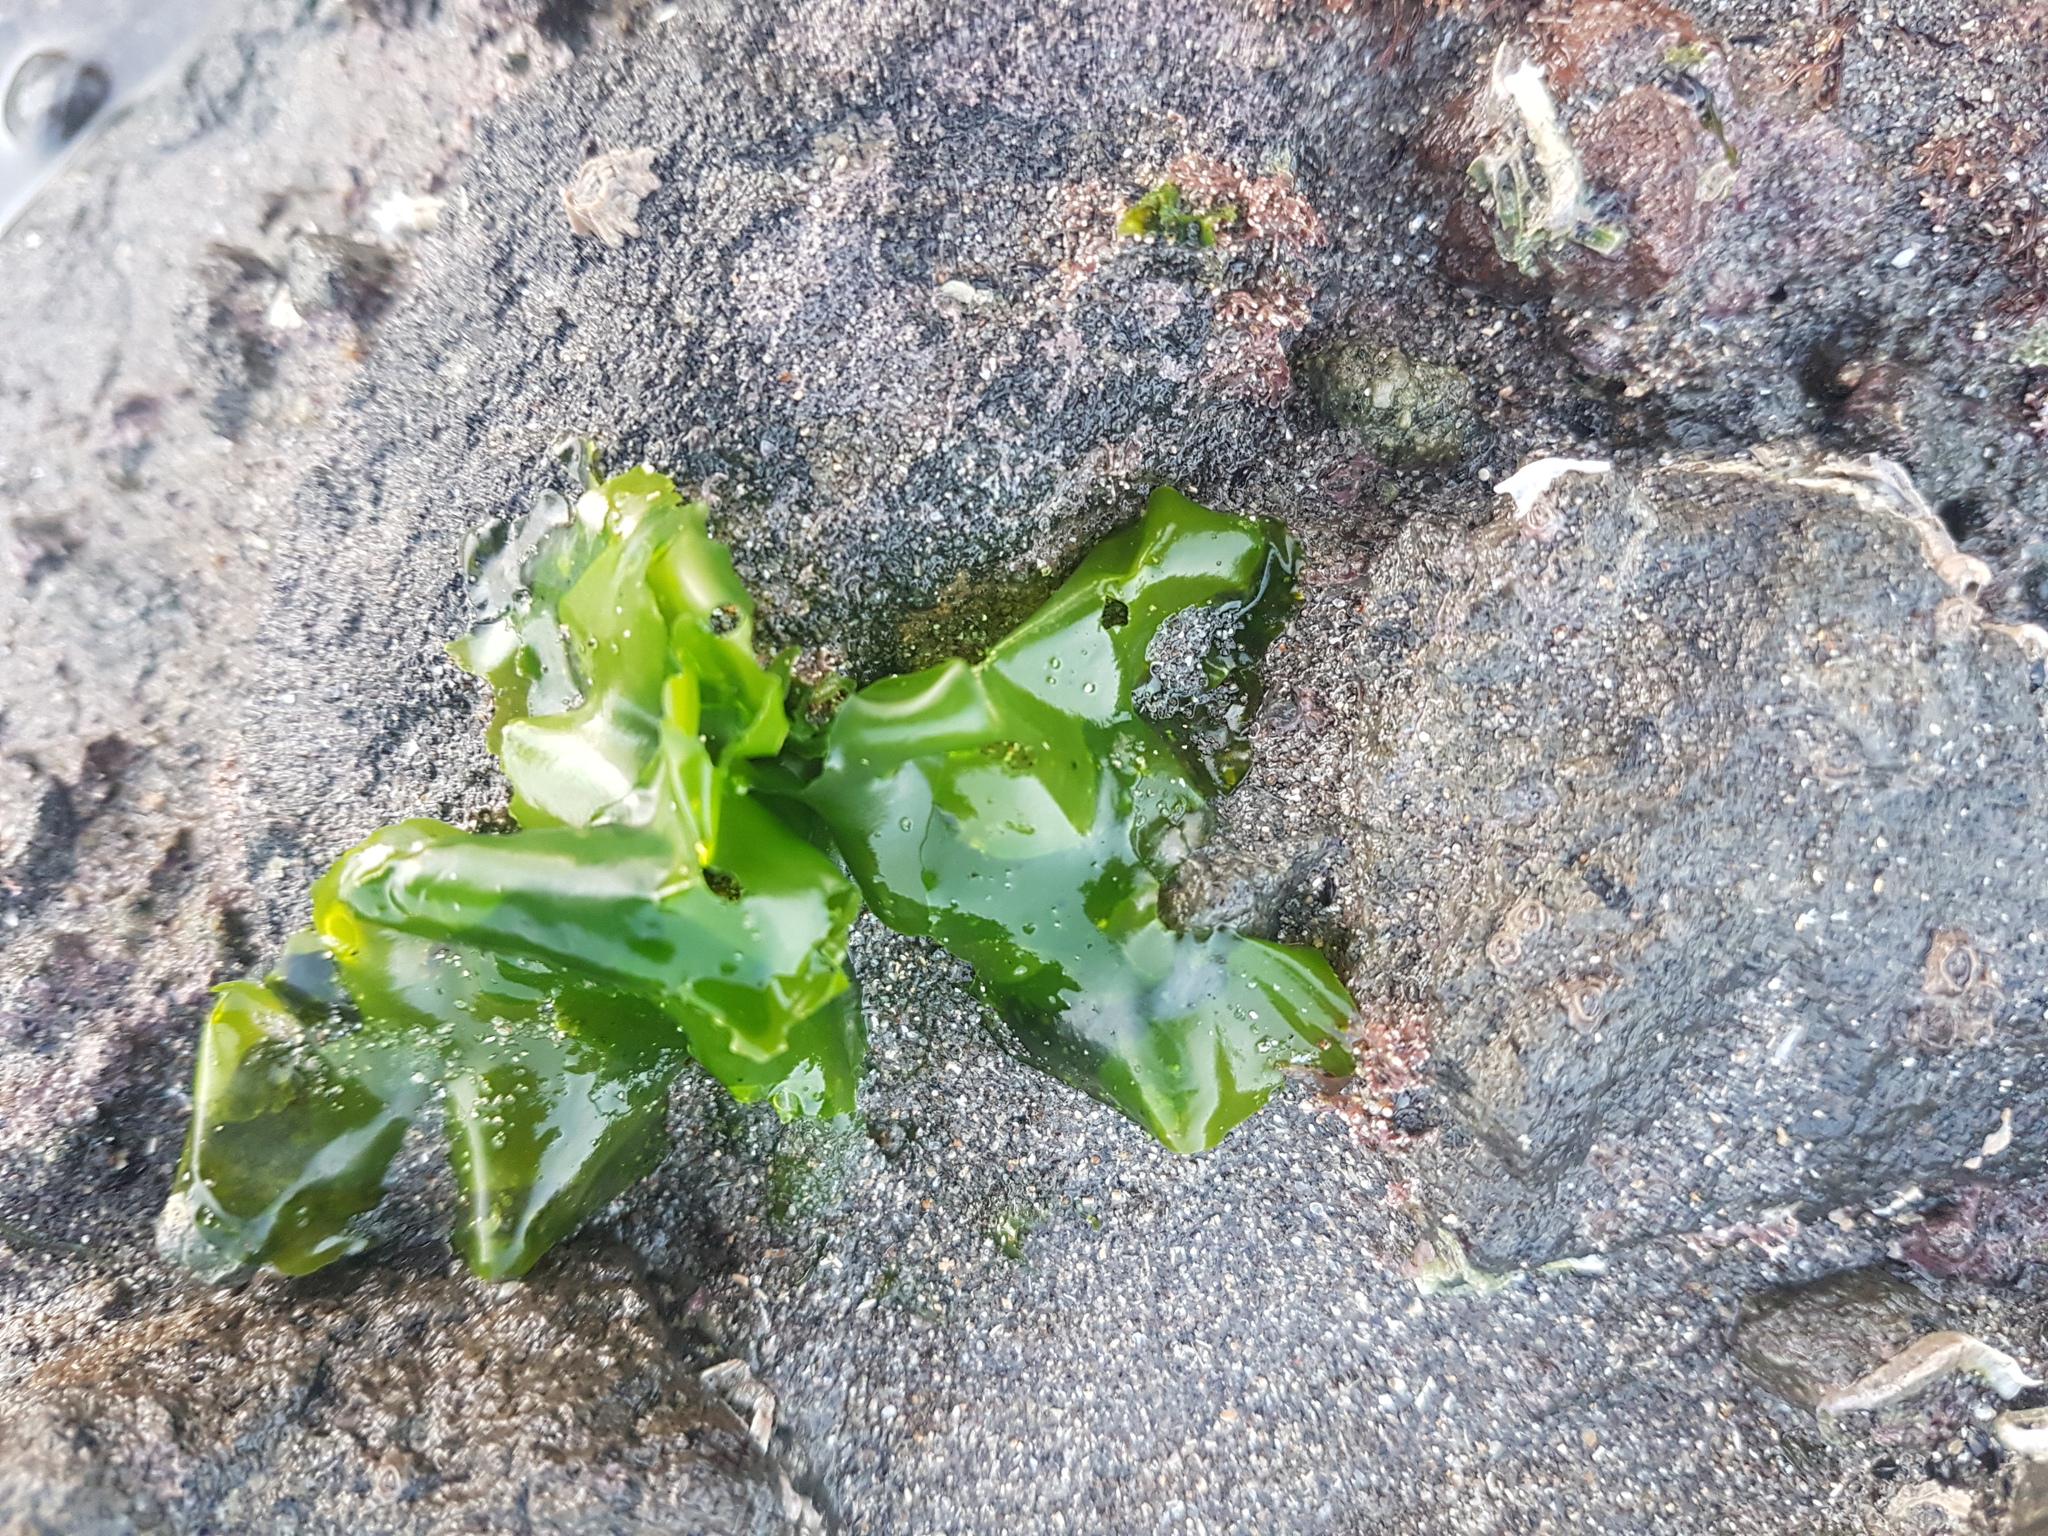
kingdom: Plantae
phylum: Chlorophyta
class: Ulvophyceae
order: Ulvales
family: Ulvaceae
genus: Ulva
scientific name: Ulva
